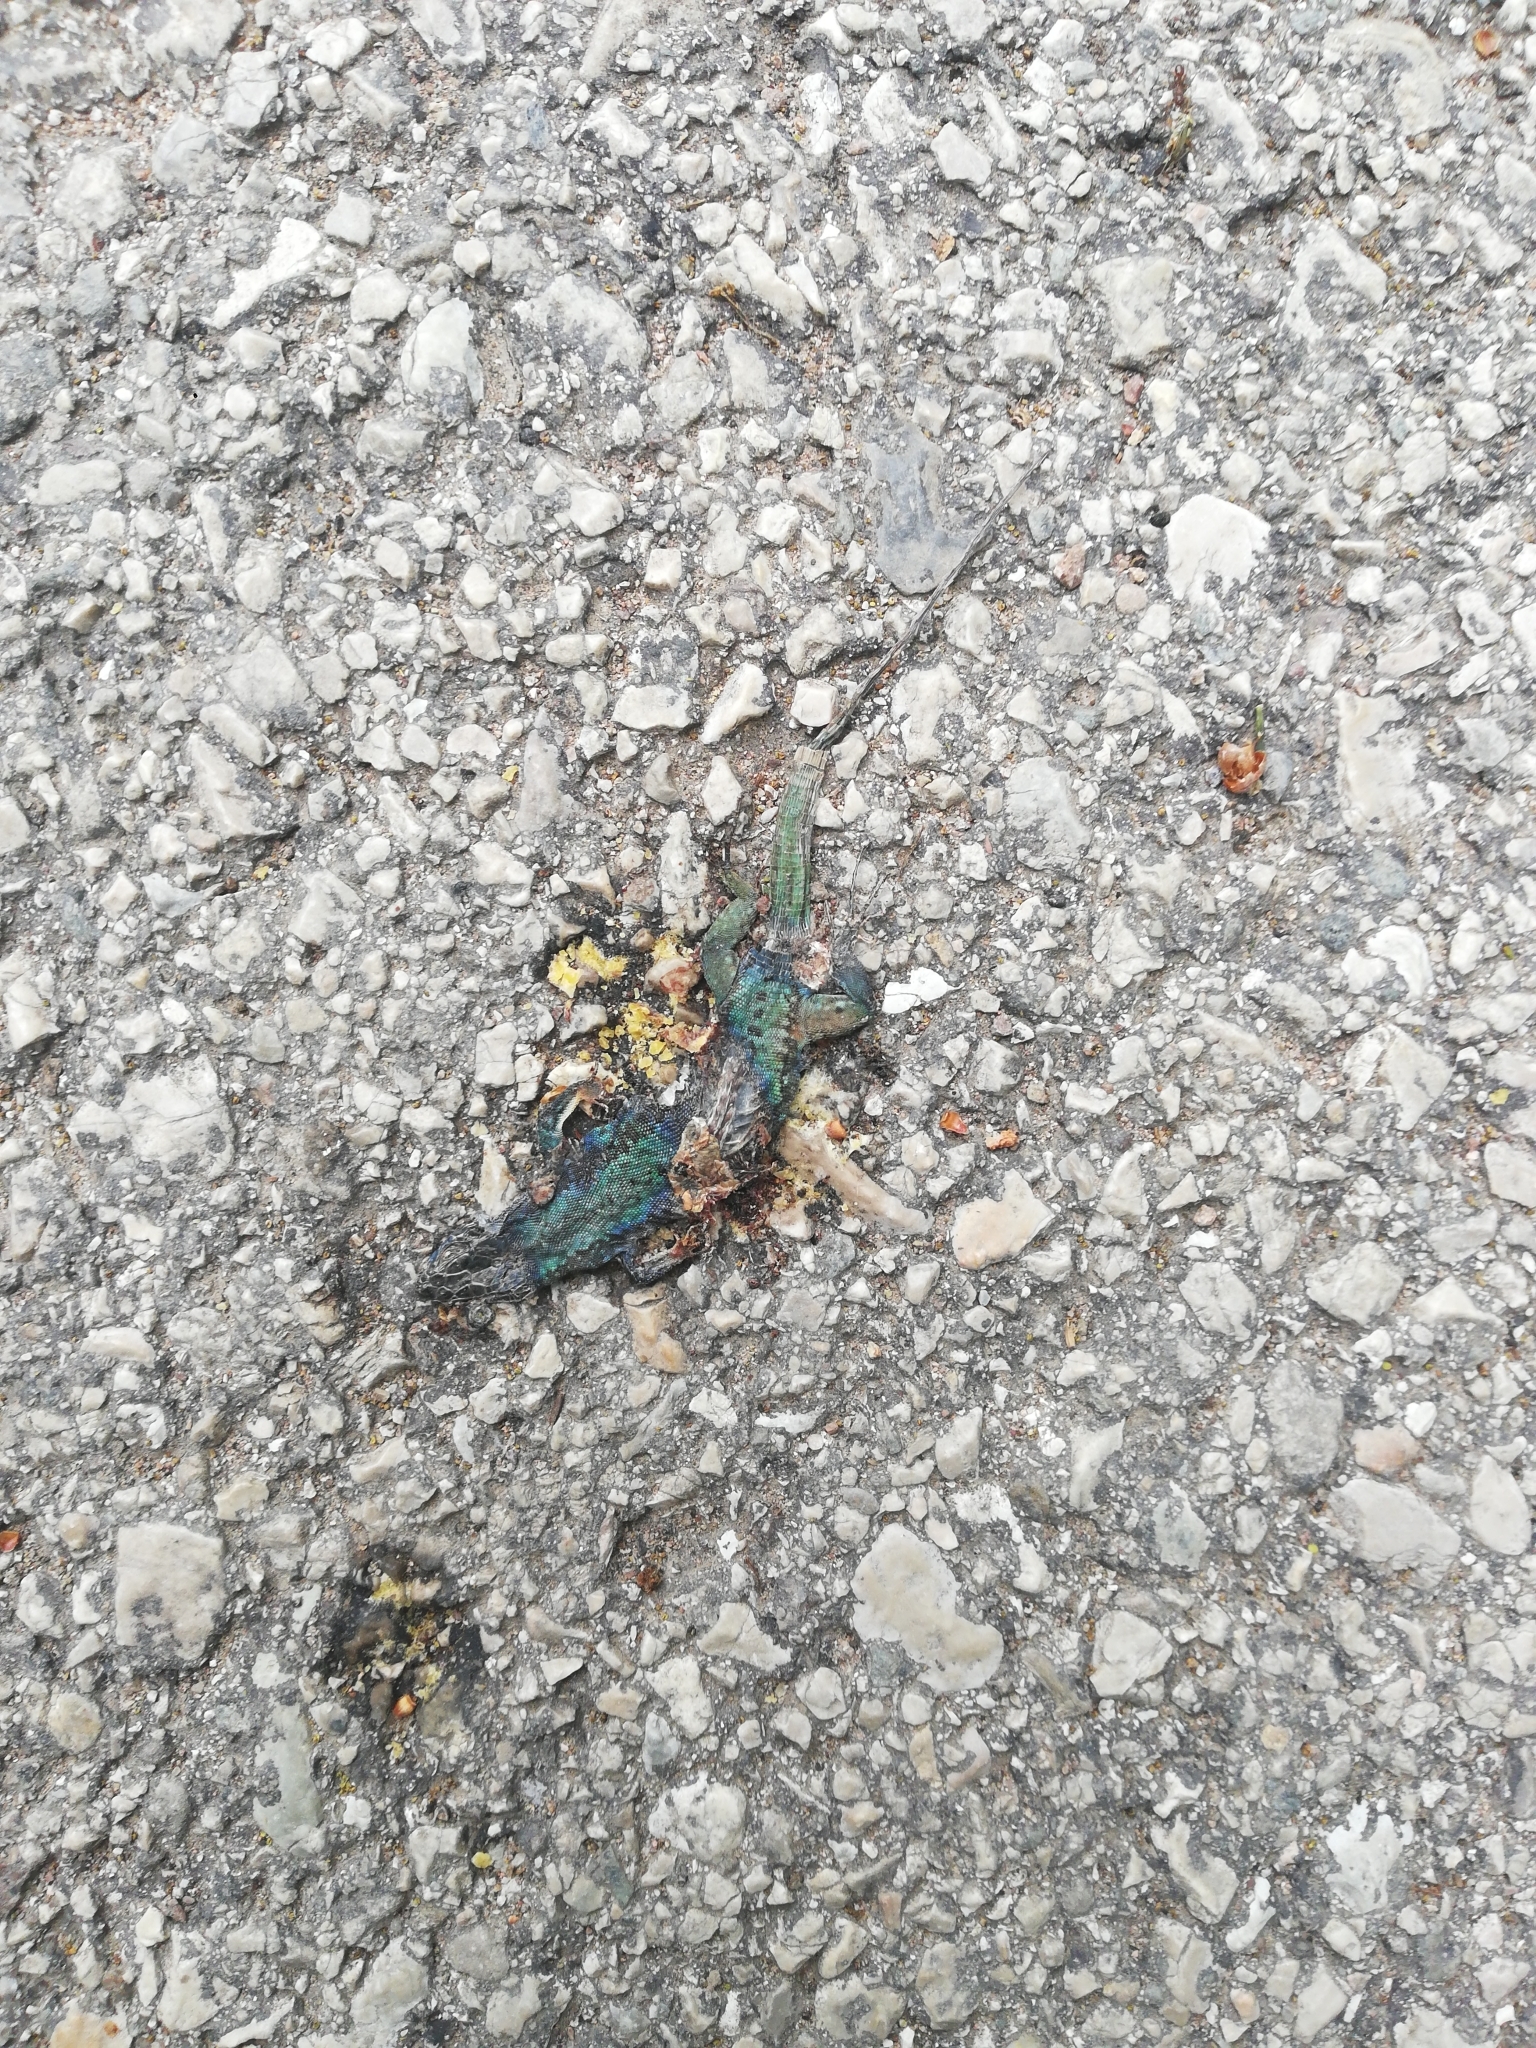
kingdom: Animalia
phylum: Chordata
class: Squamata
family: Lacertidae
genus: Podarcis
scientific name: Podarcis muralis
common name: Common wall lizard
